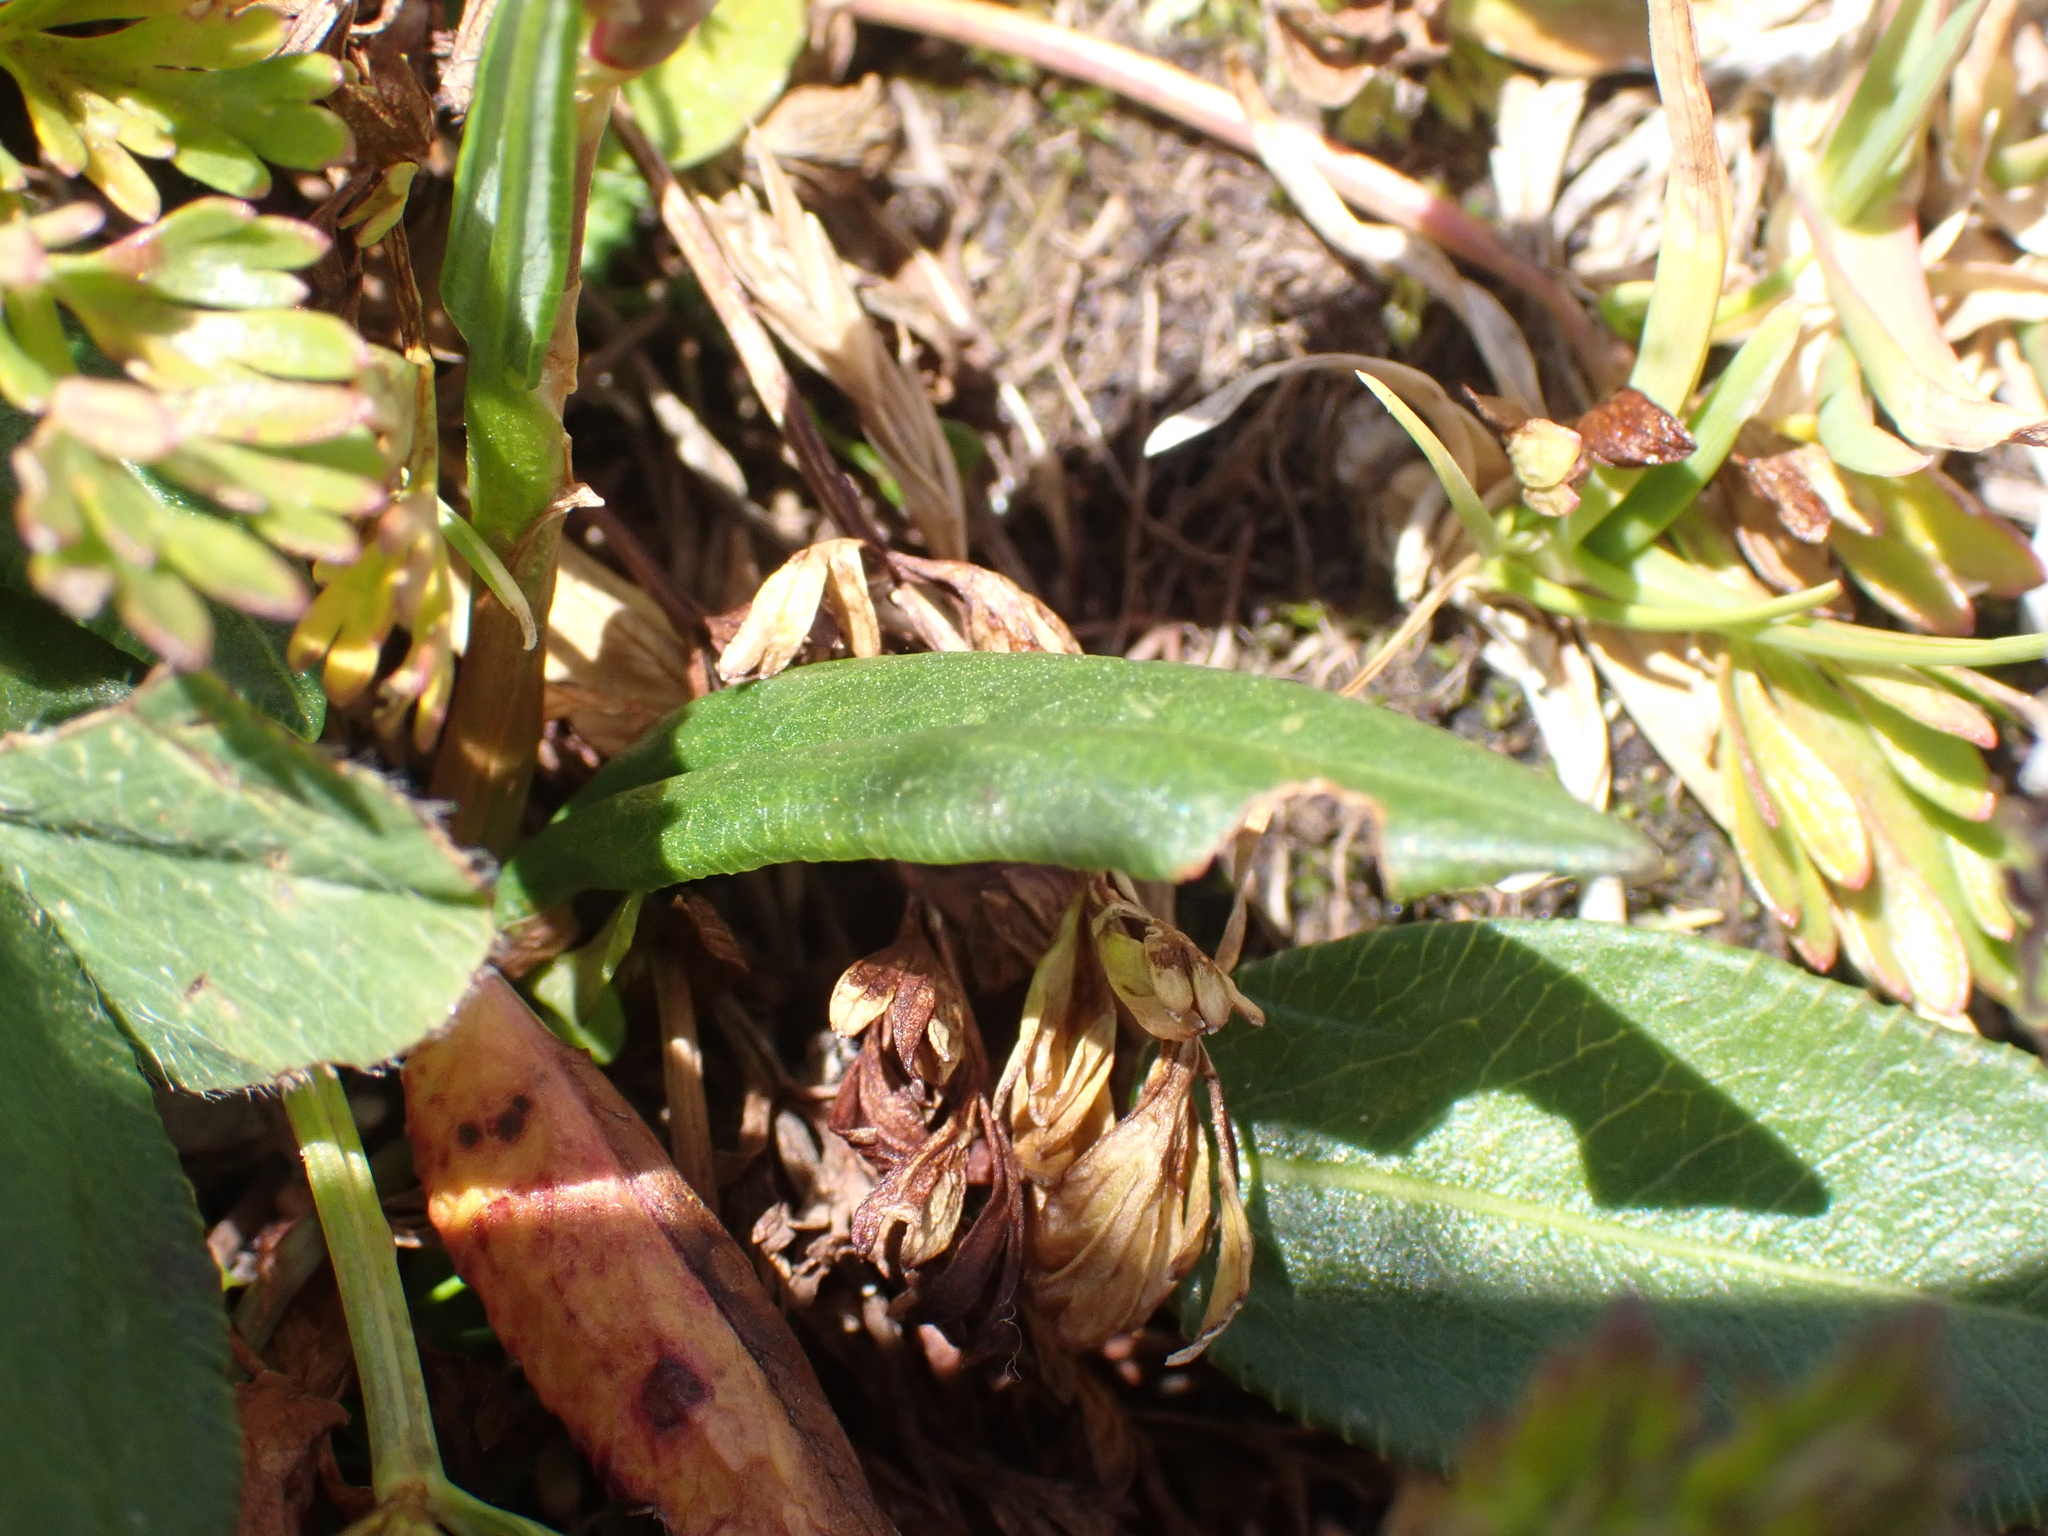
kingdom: Plantae
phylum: Tracheophyta
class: Magnoliopsida
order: Caryophyllales
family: Polygonaceae
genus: Bistorta
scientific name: Bistorta vivipara
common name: Alpine bistort
